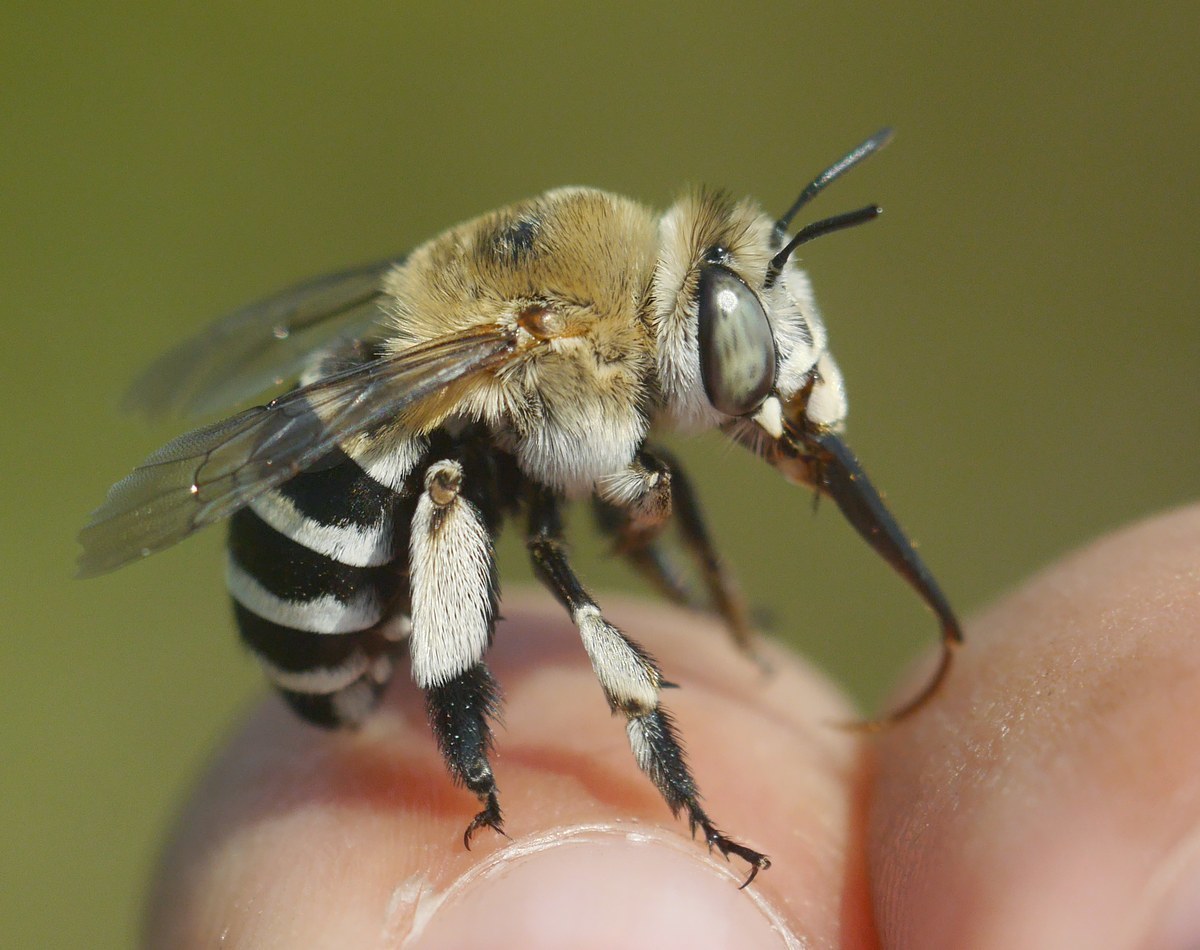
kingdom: Animalia
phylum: Arthropoda
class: Insecta
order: Hymenoptera
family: Apidae
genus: Amegilla
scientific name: Amegilla quadrifasciata
